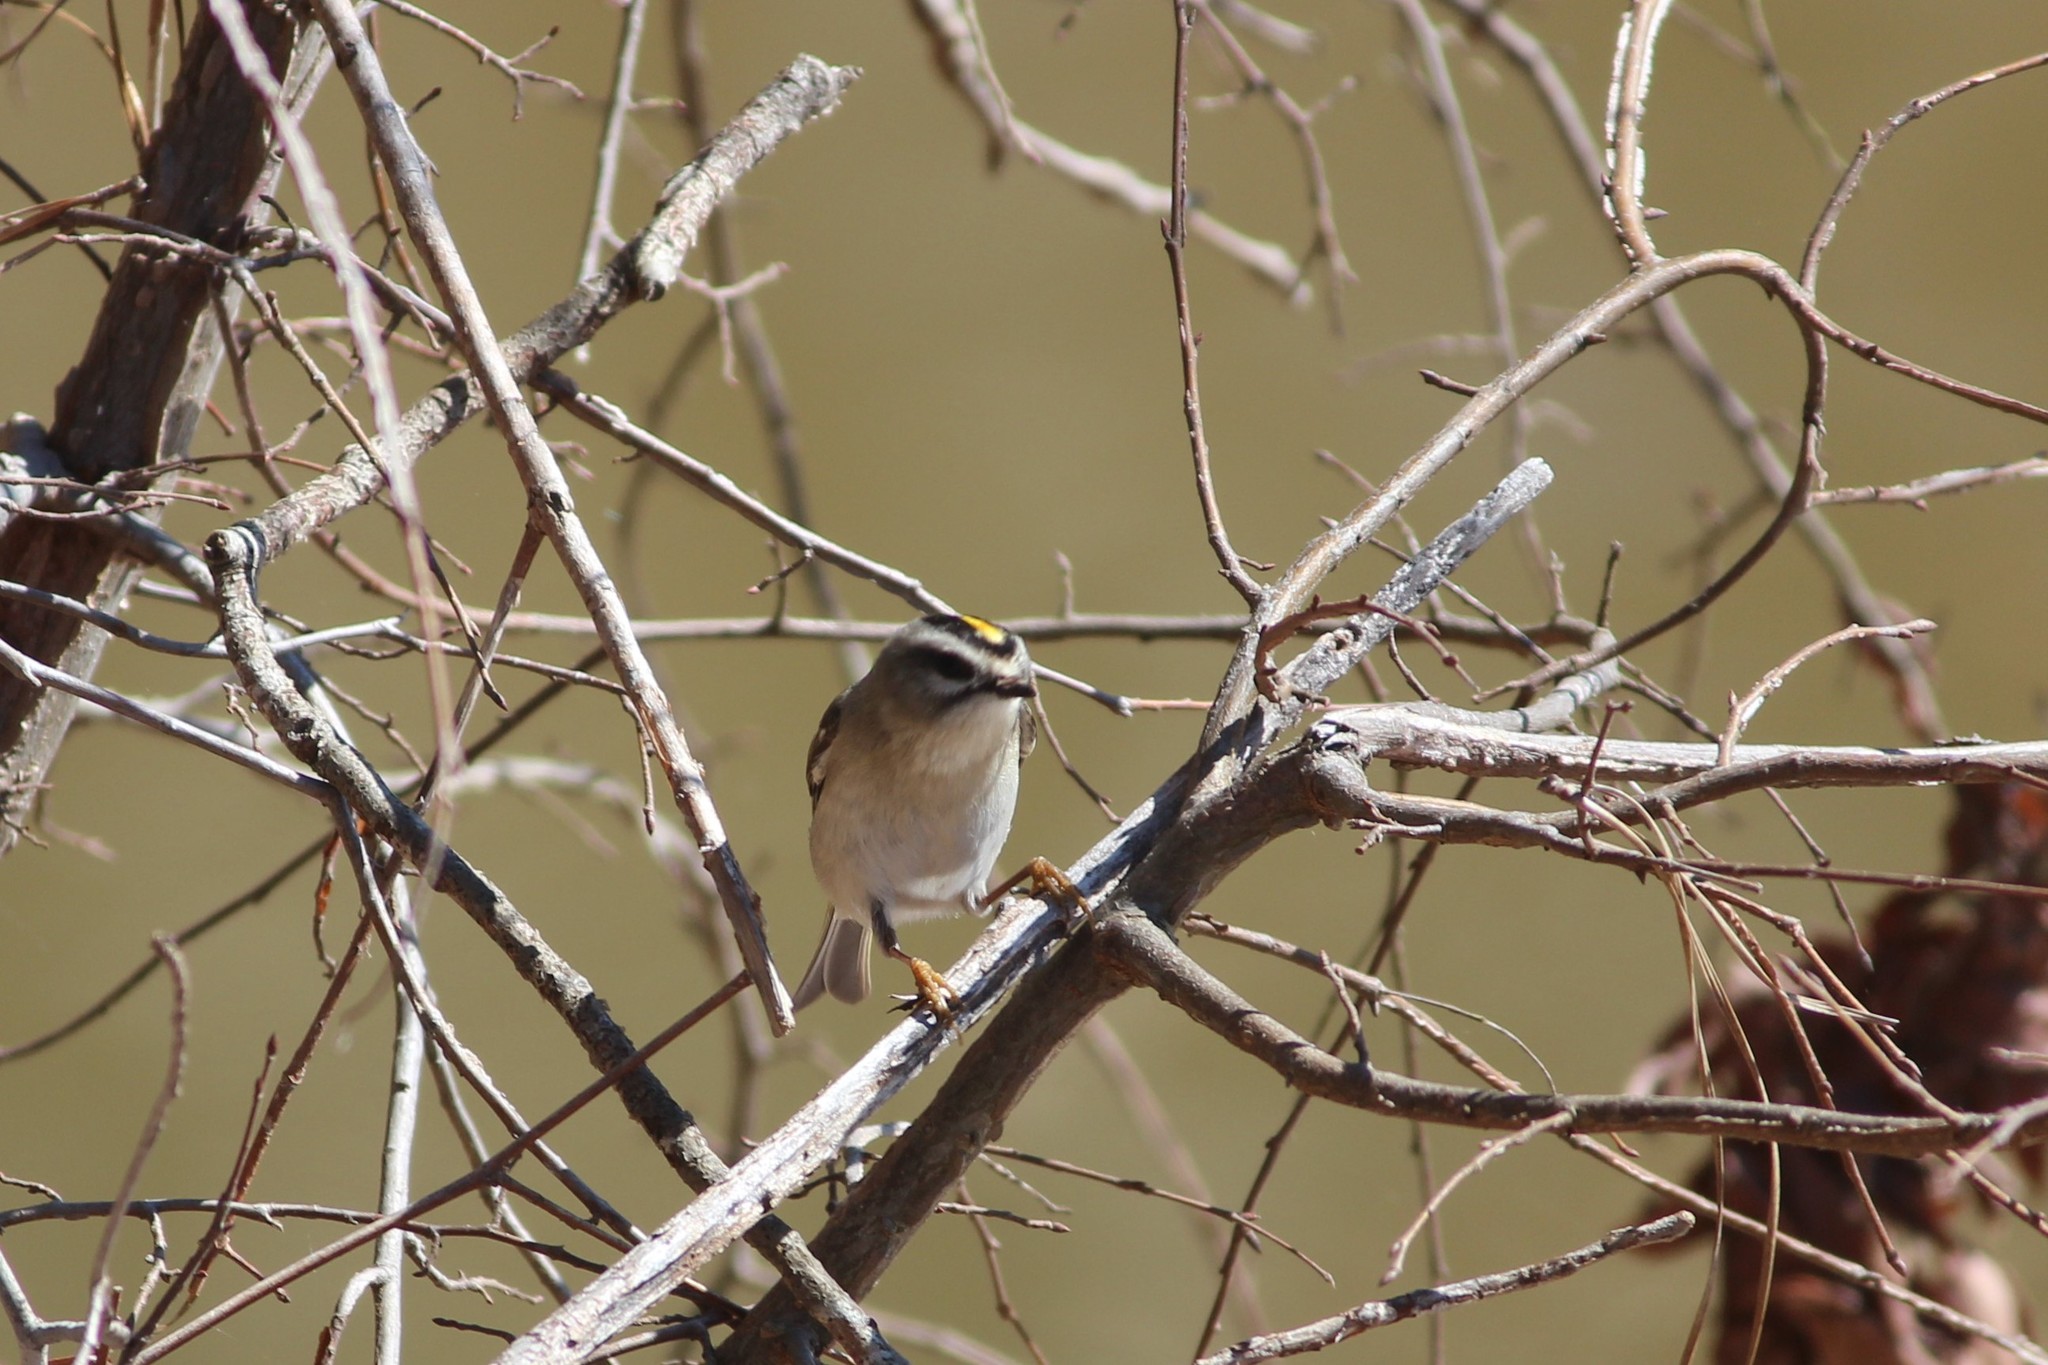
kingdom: Animalia
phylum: Chordata
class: Aves
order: Passeriformes
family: Regulidae
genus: Regulus
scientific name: Regulus satrapa
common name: Golden-crowned kinglet
